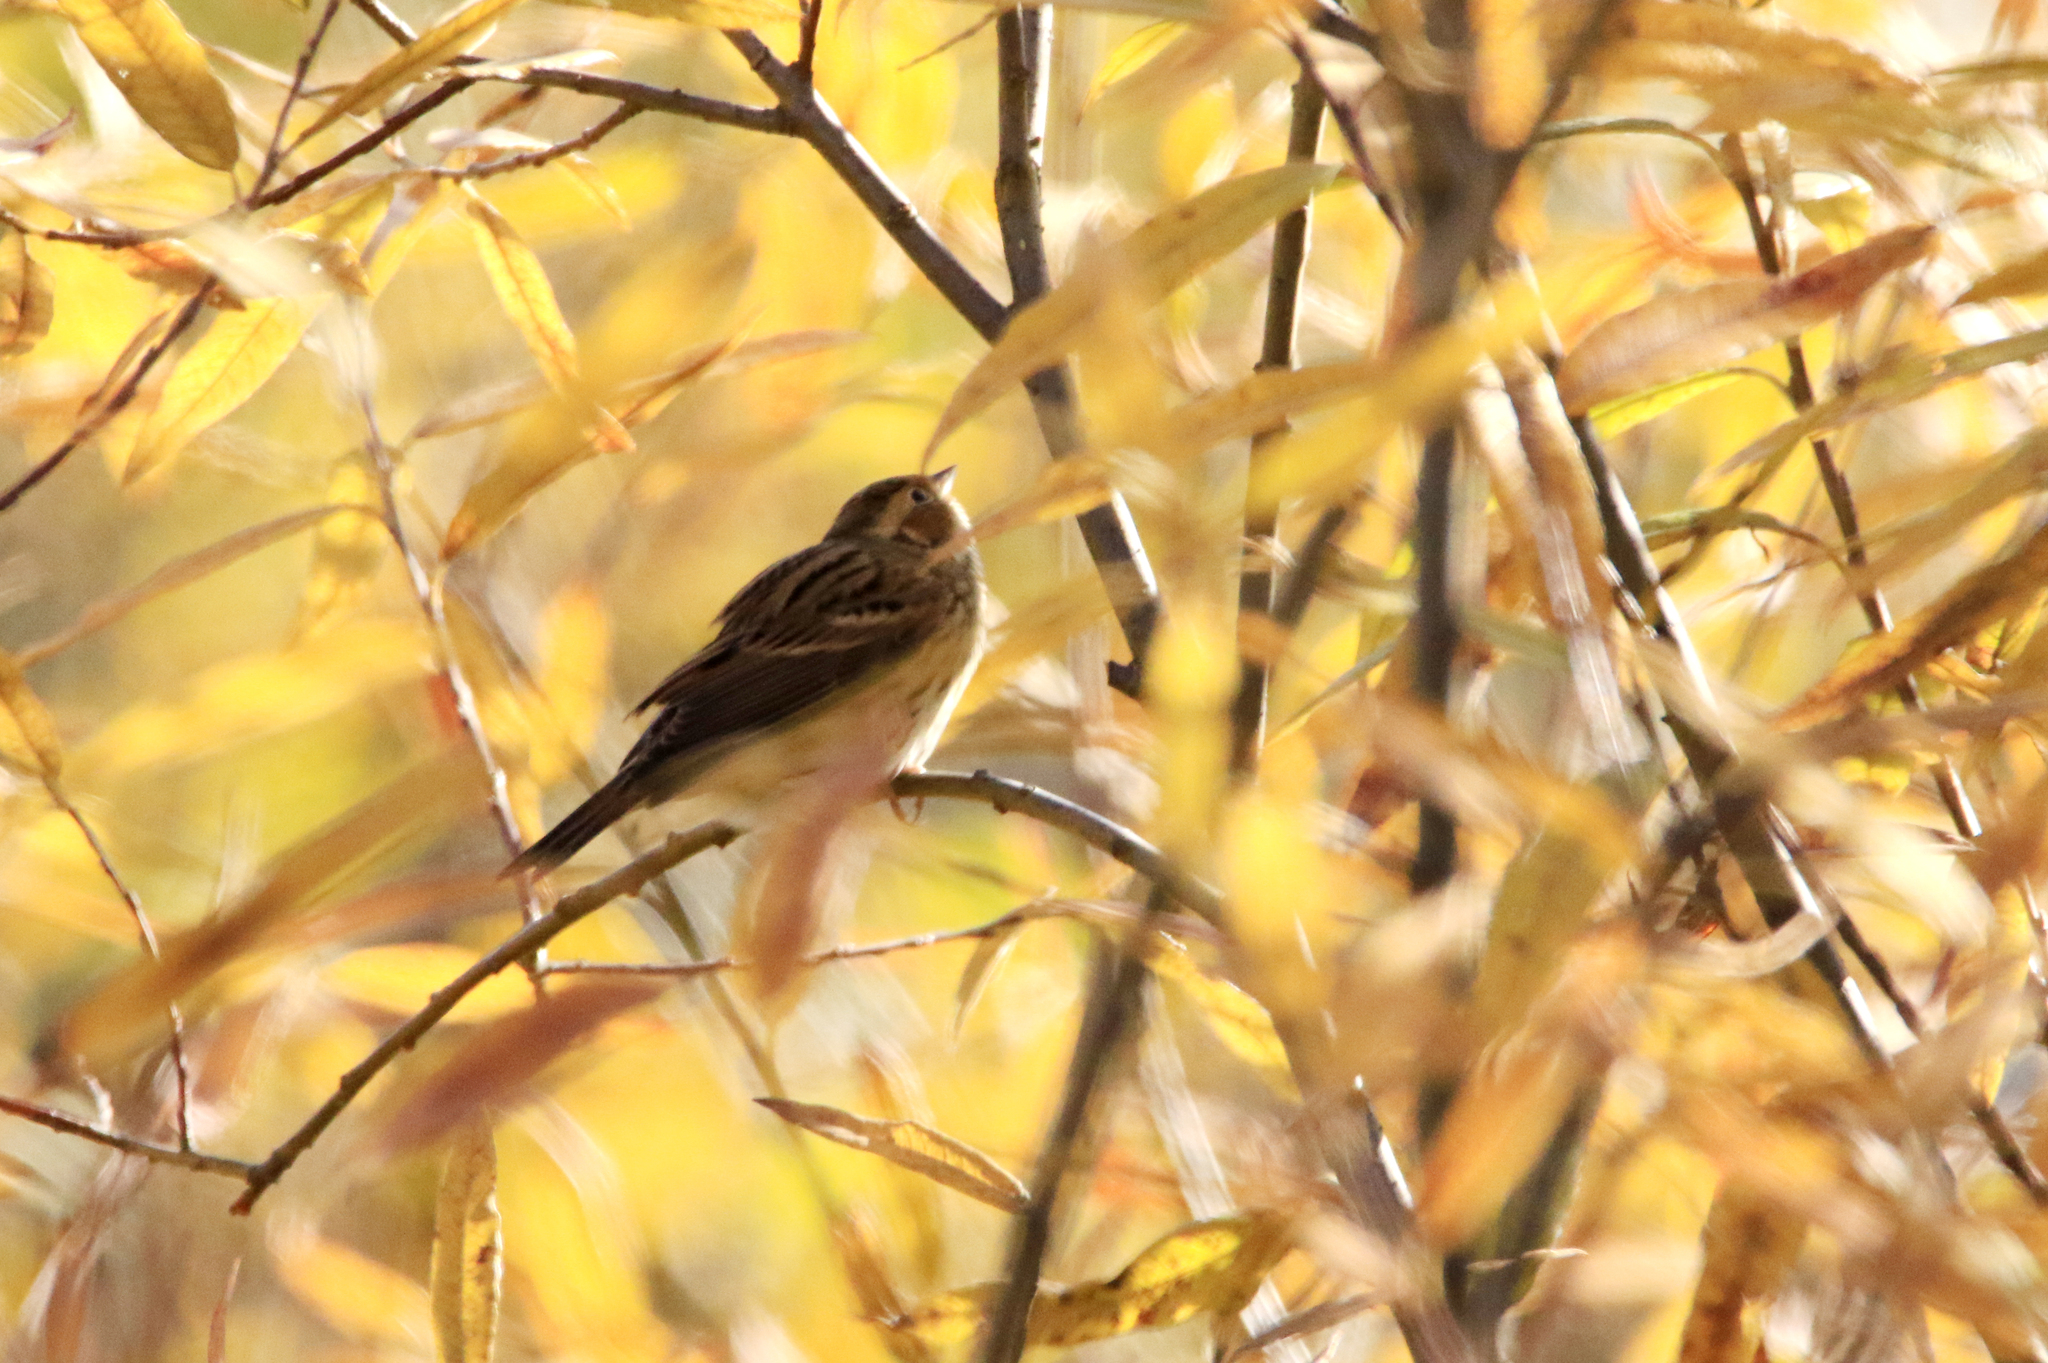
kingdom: Animalia
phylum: Chordata
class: Aves
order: Passeriformes
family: Emberizidae
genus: Emberiza
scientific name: Emberiza pusilla
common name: Little bunting
